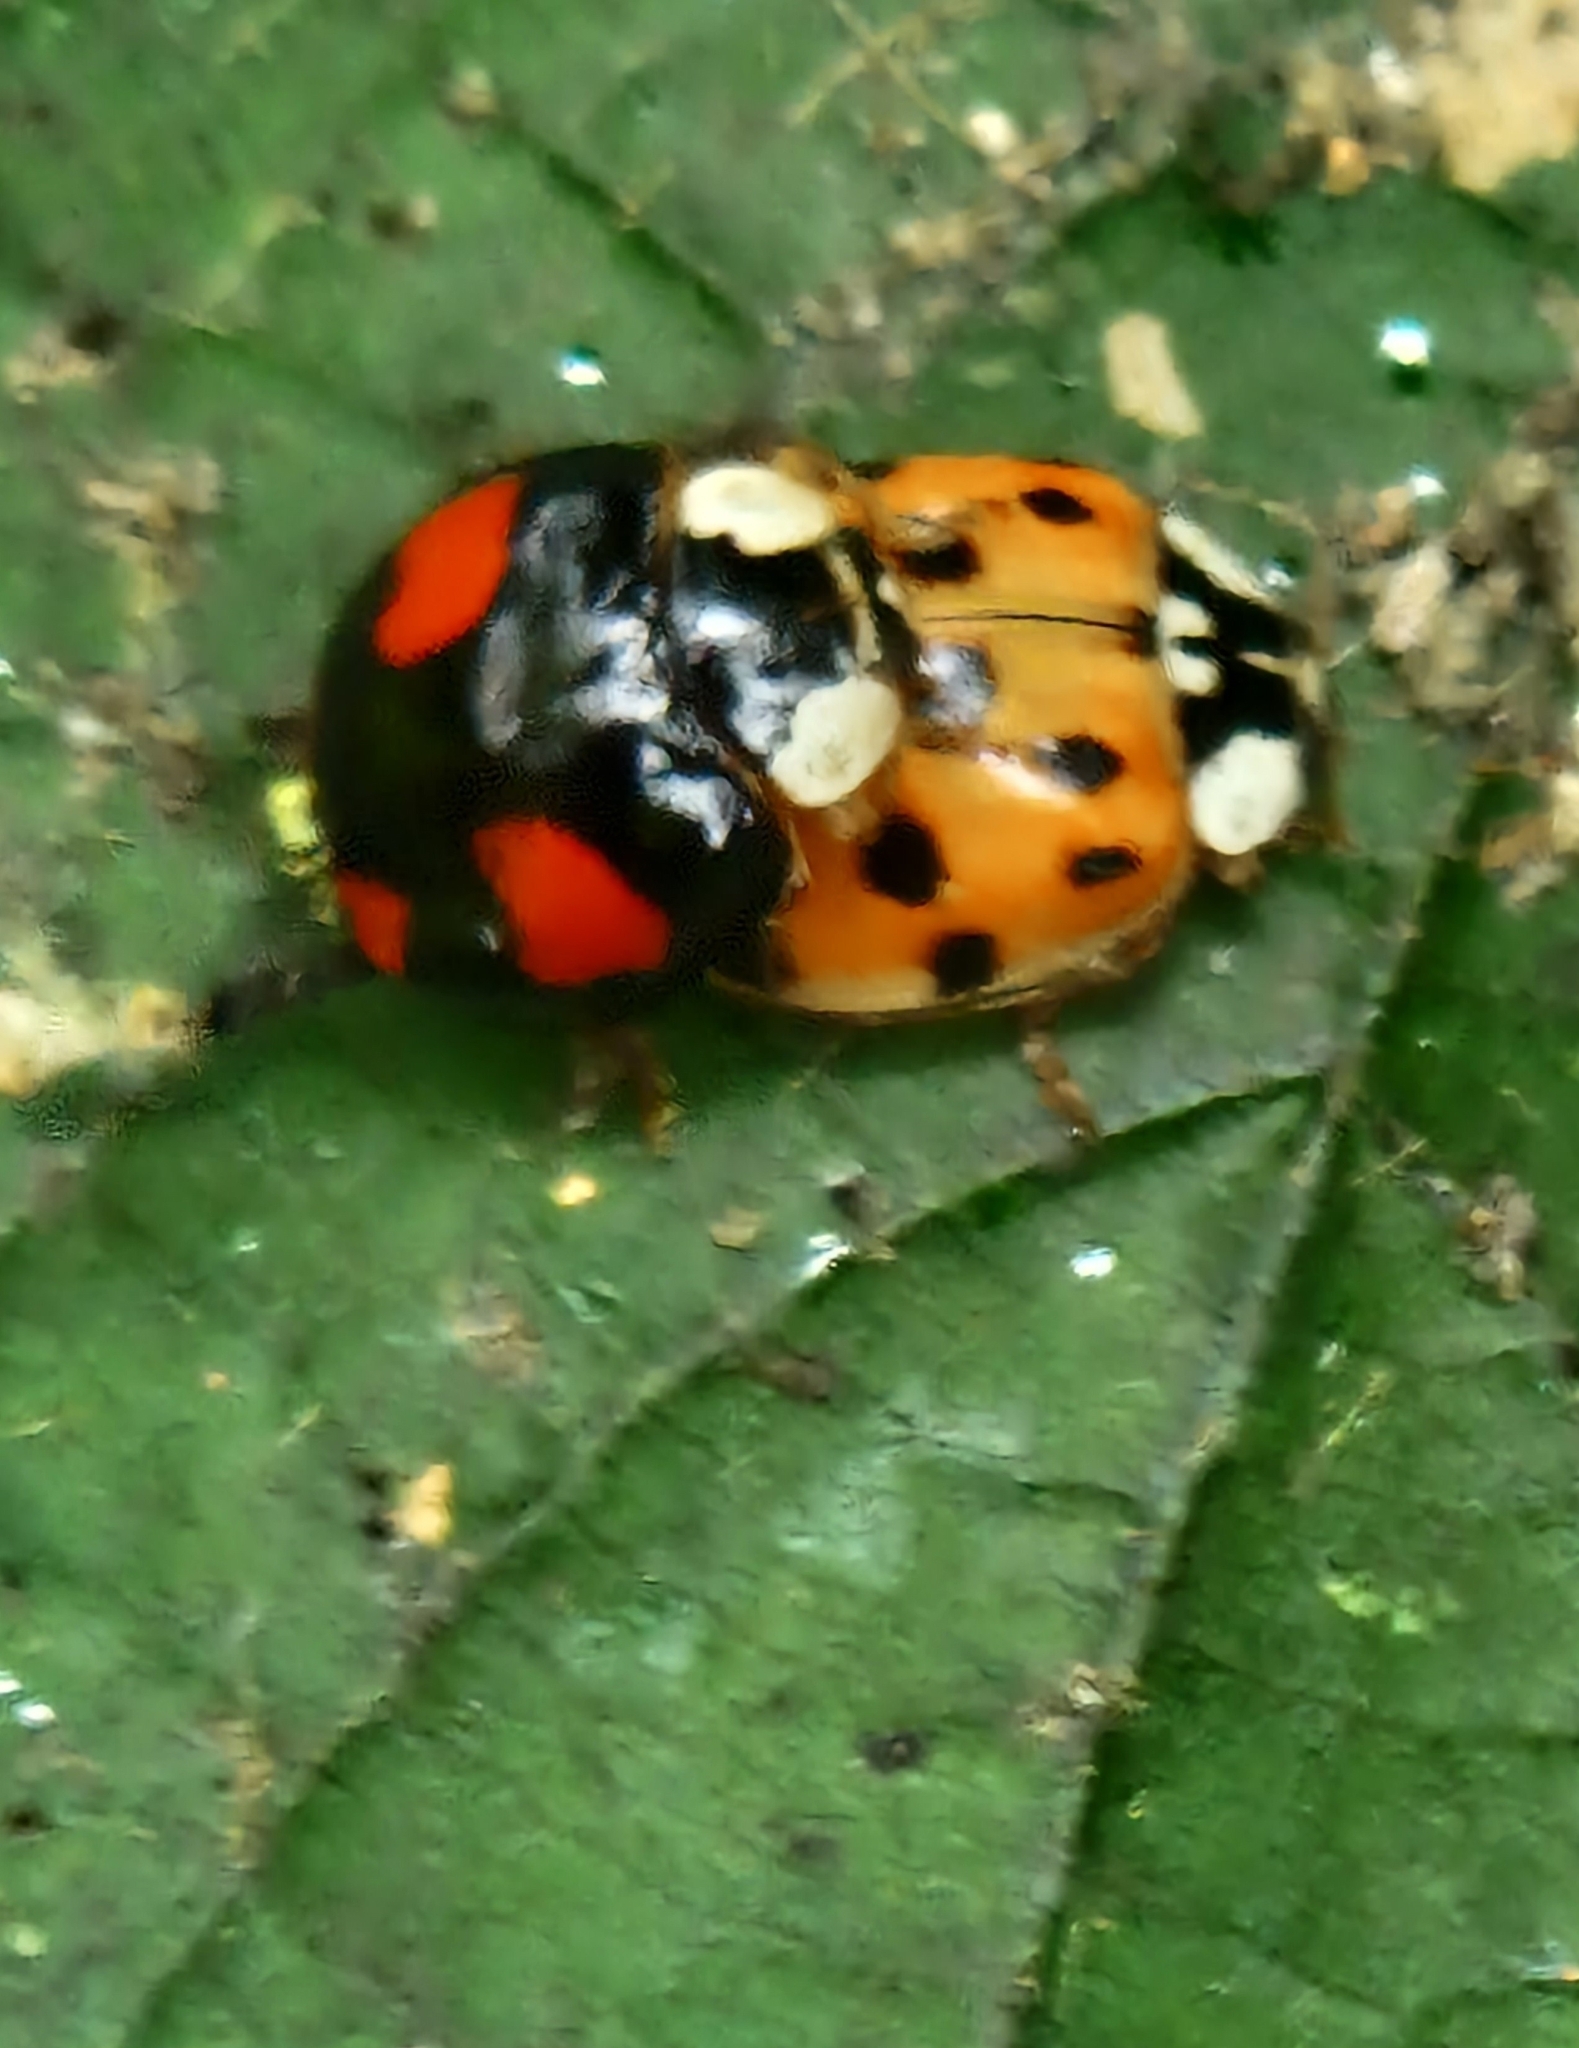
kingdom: Animalia
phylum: Arthropoda
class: Insecta
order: Coleoptera
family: Coccinellidae
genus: Harmonia
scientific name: Harmonia axyridis
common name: Harlequin ladybird
